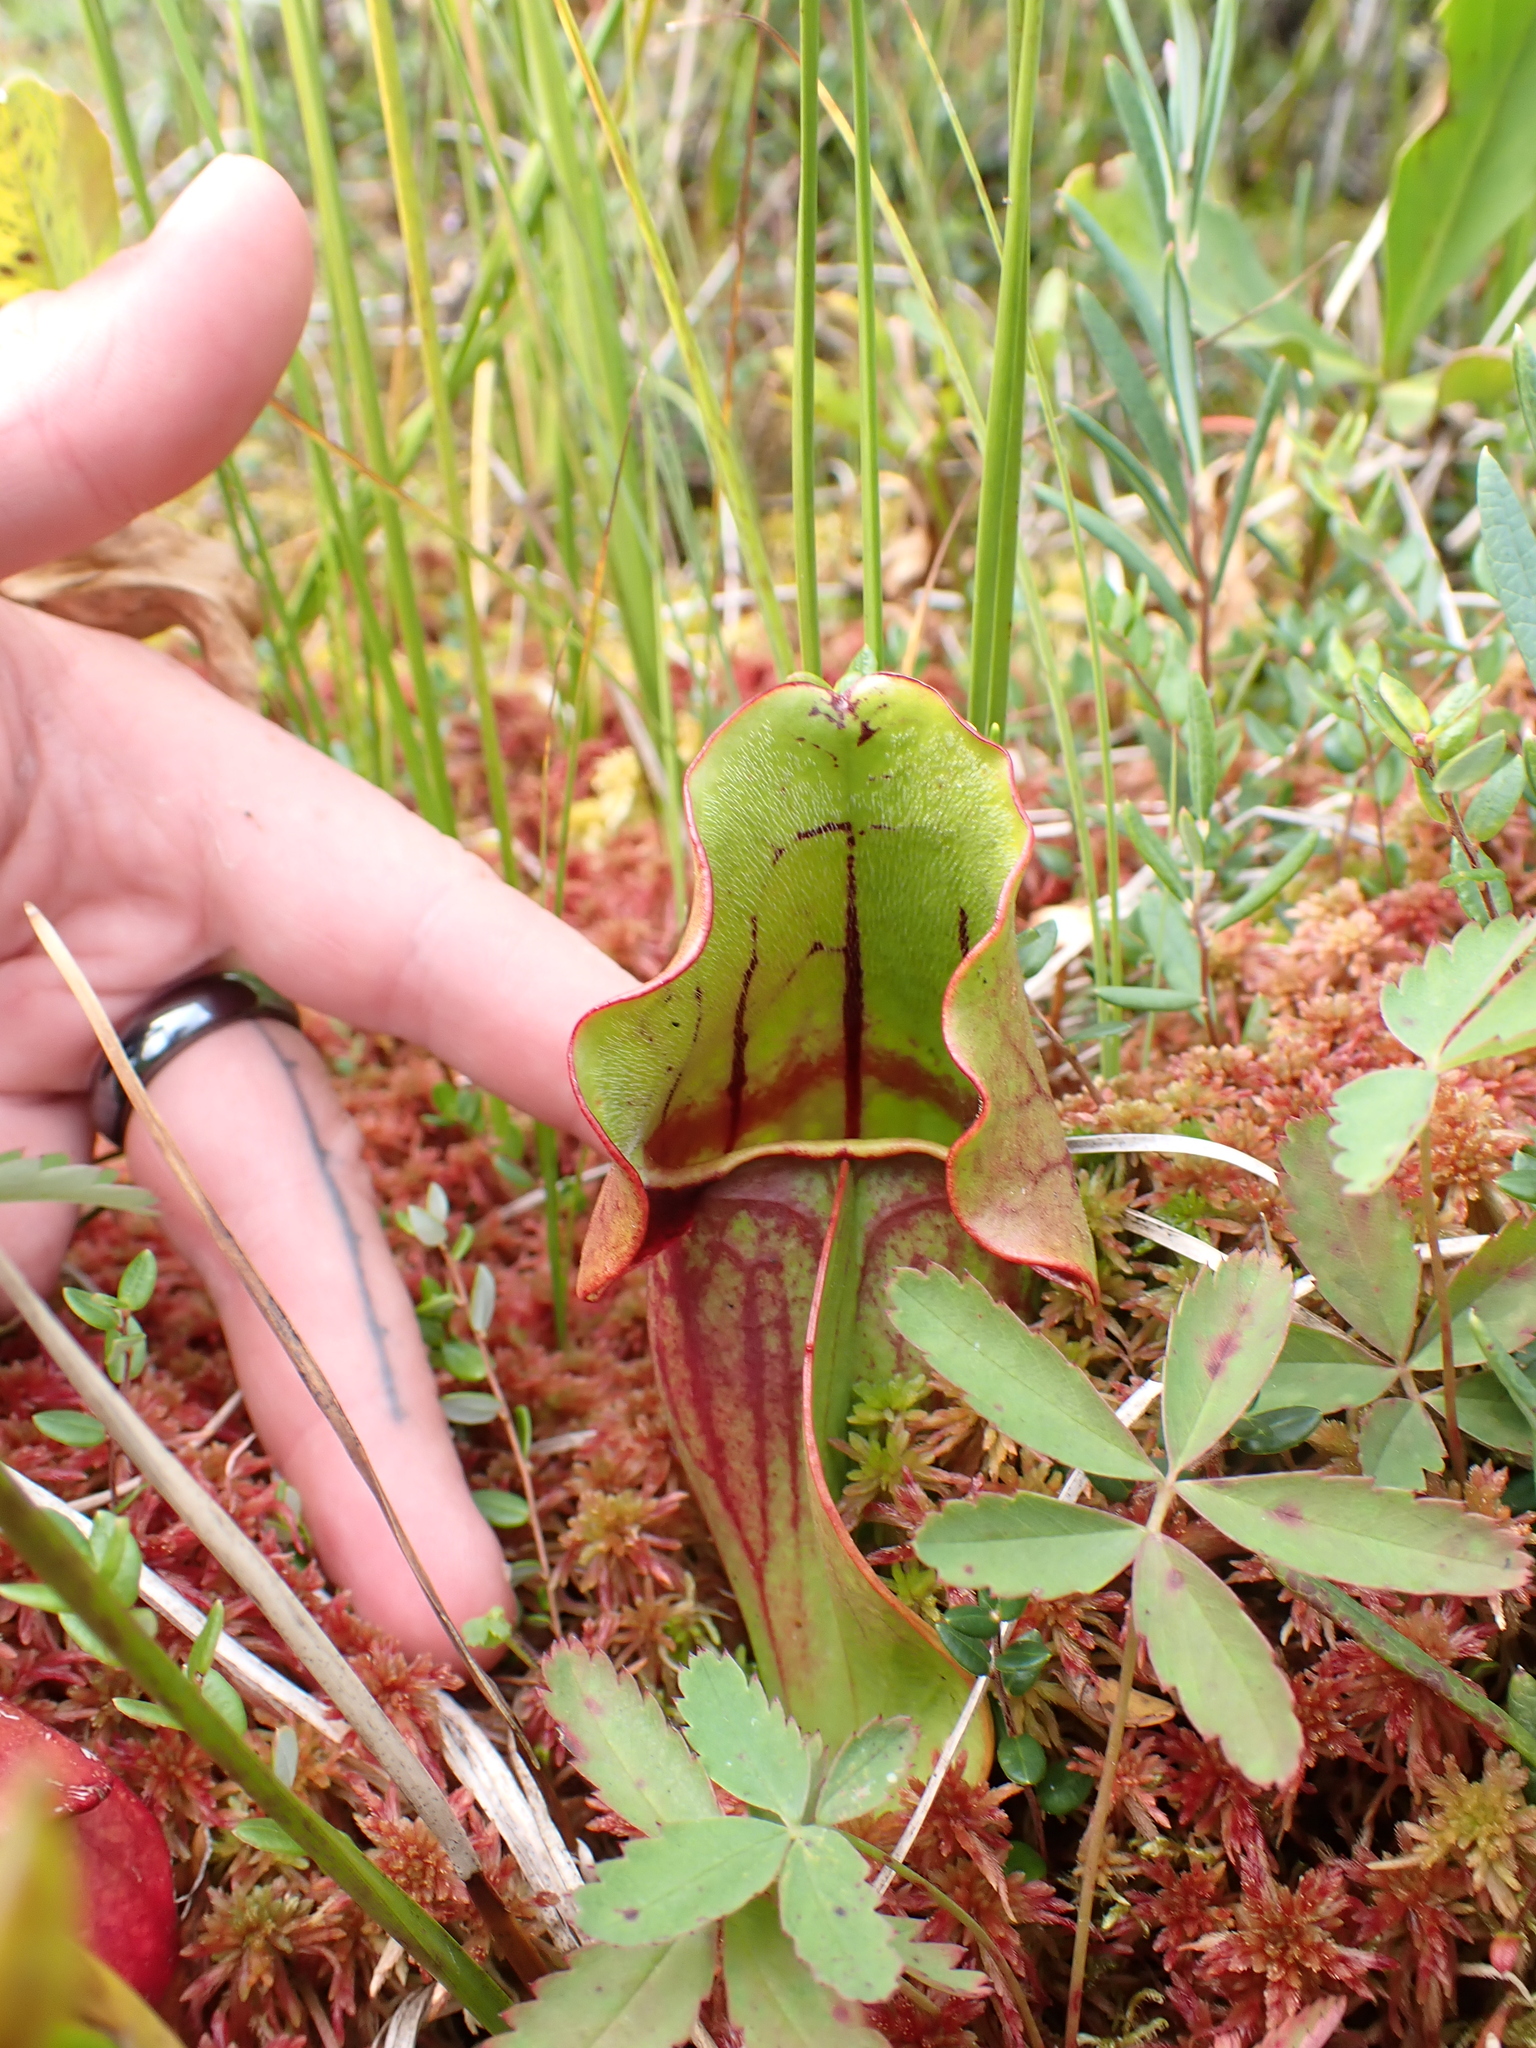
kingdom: Plantae
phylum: Tracheophyta
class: Magnoliopsida
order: Ericales
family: Sarraceniaceae
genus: Sarracenia
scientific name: Sarracenia purpurea
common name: Pitcherplant
